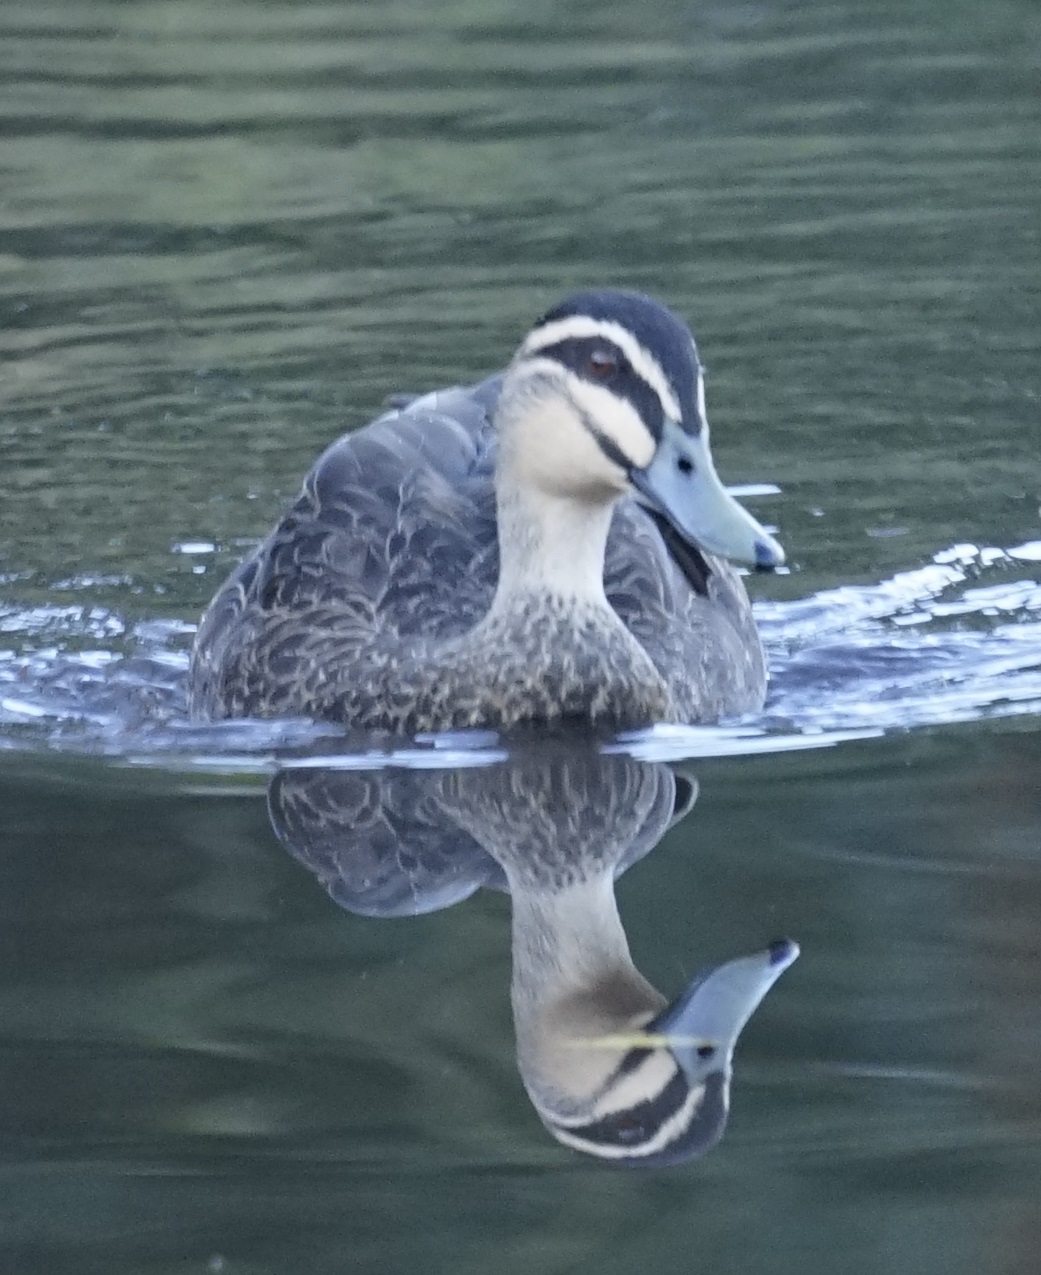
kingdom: Animalia
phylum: Chordata
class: Aves
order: Anseriformes
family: Anatidae
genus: Anas
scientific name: Anas superciliosa
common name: Pacific black duck
